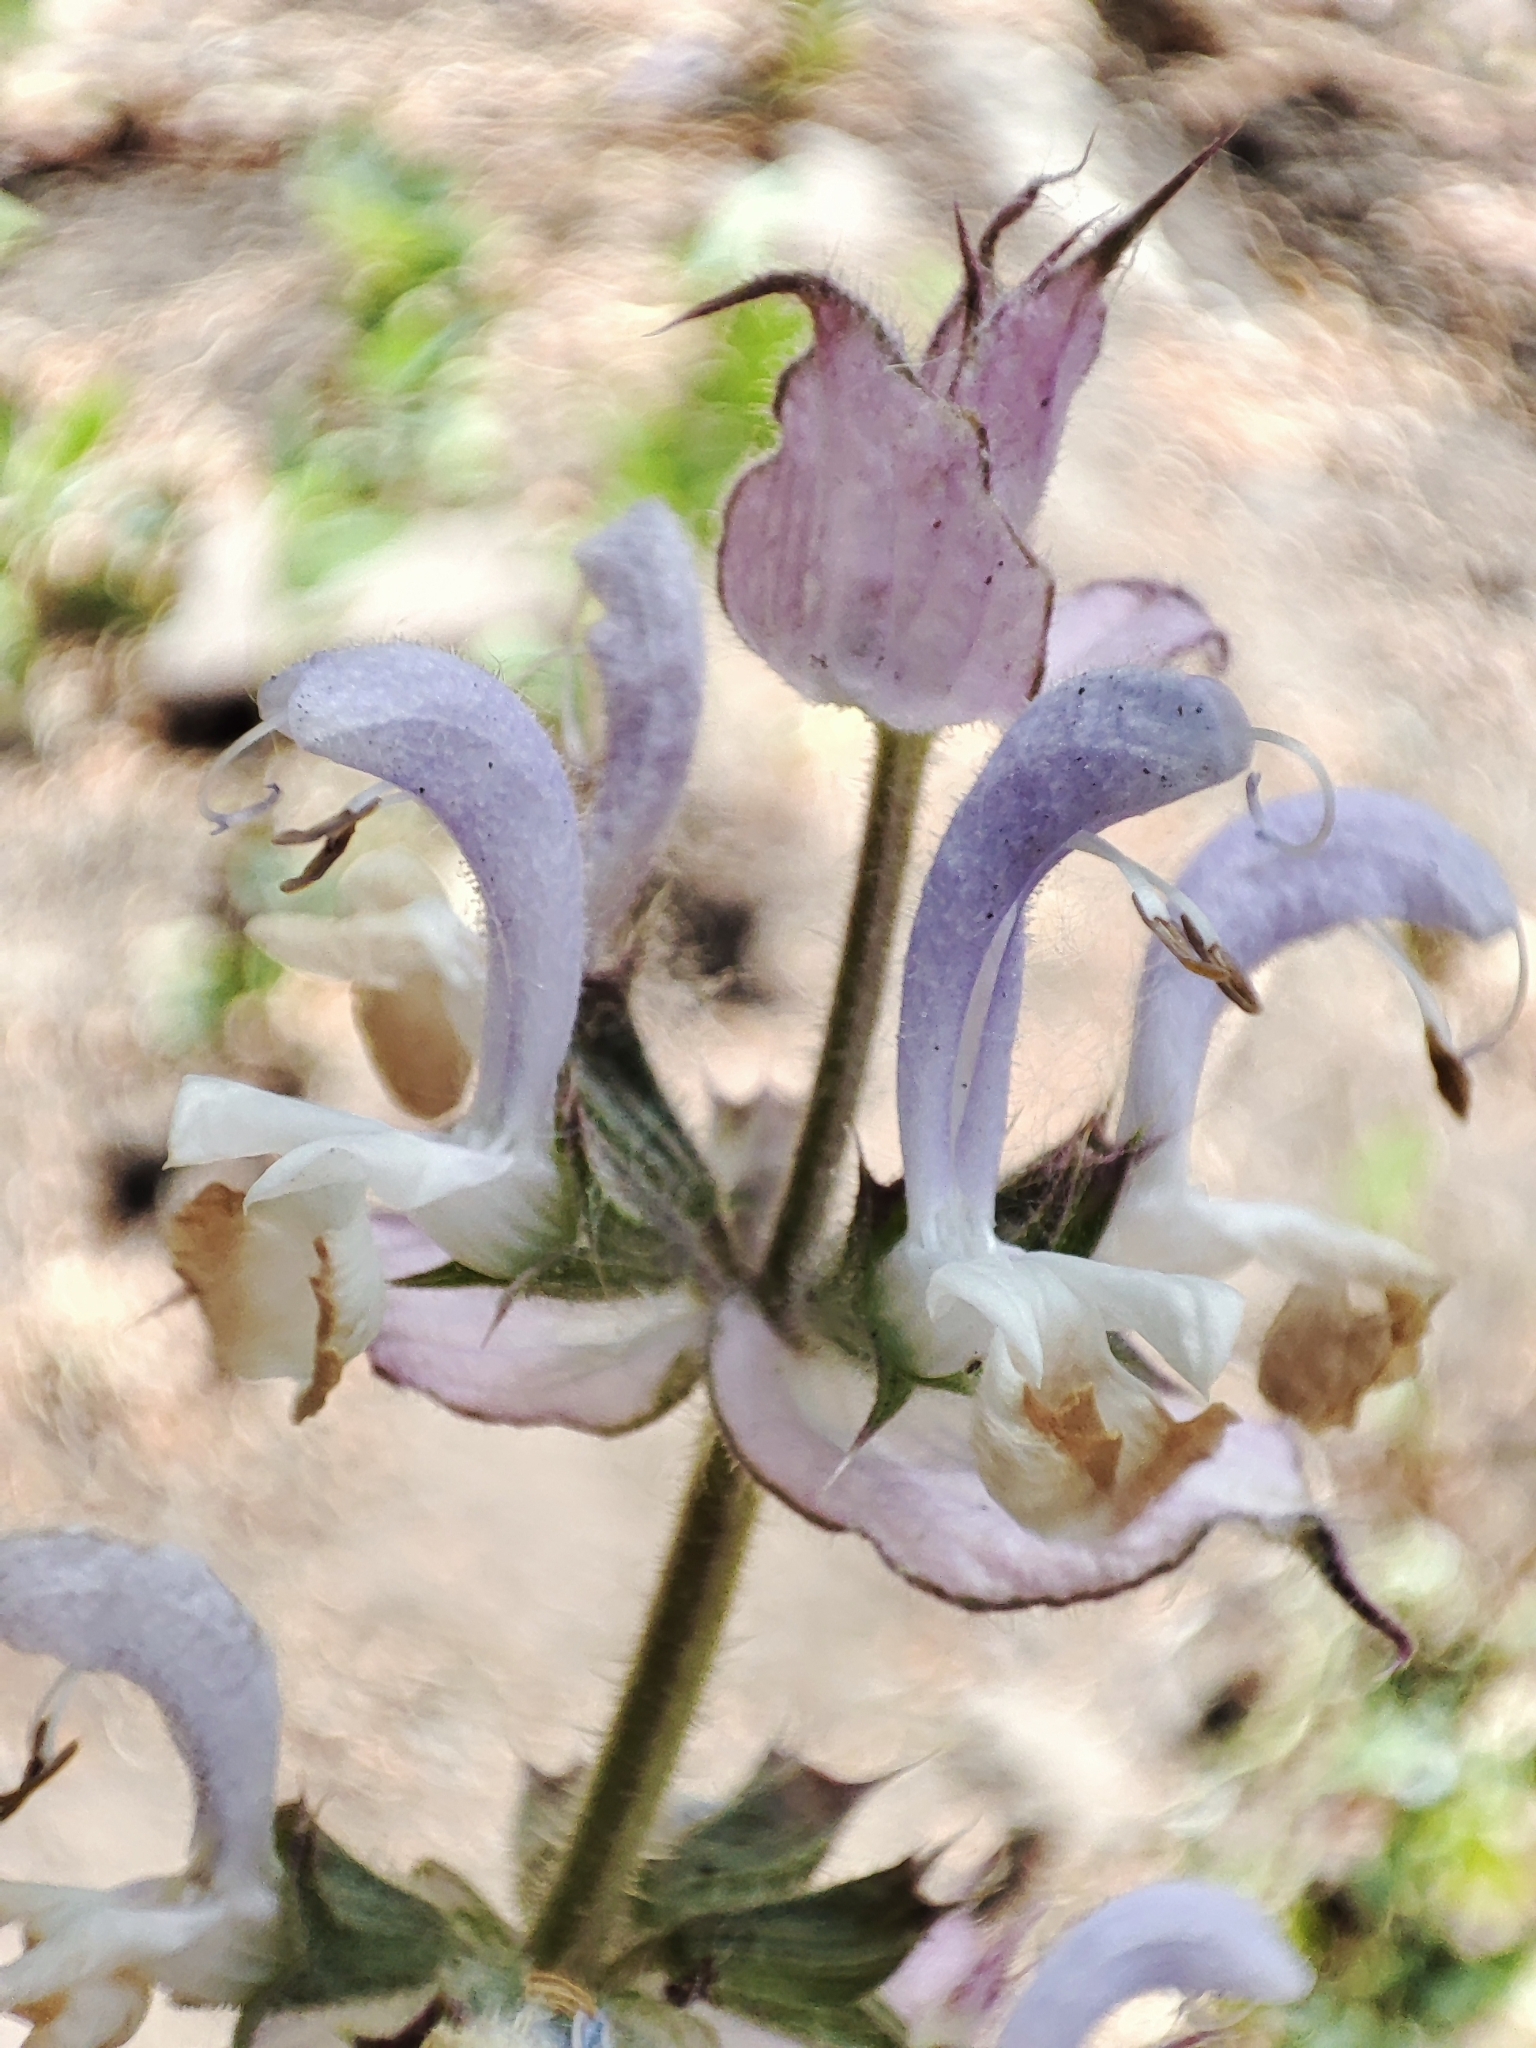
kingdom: Plantae
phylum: Tracheophyta
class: Magnoliopsida
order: Lamiales
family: Lamiaceae
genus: Salvia
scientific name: Salvia sclarea
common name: Clary
